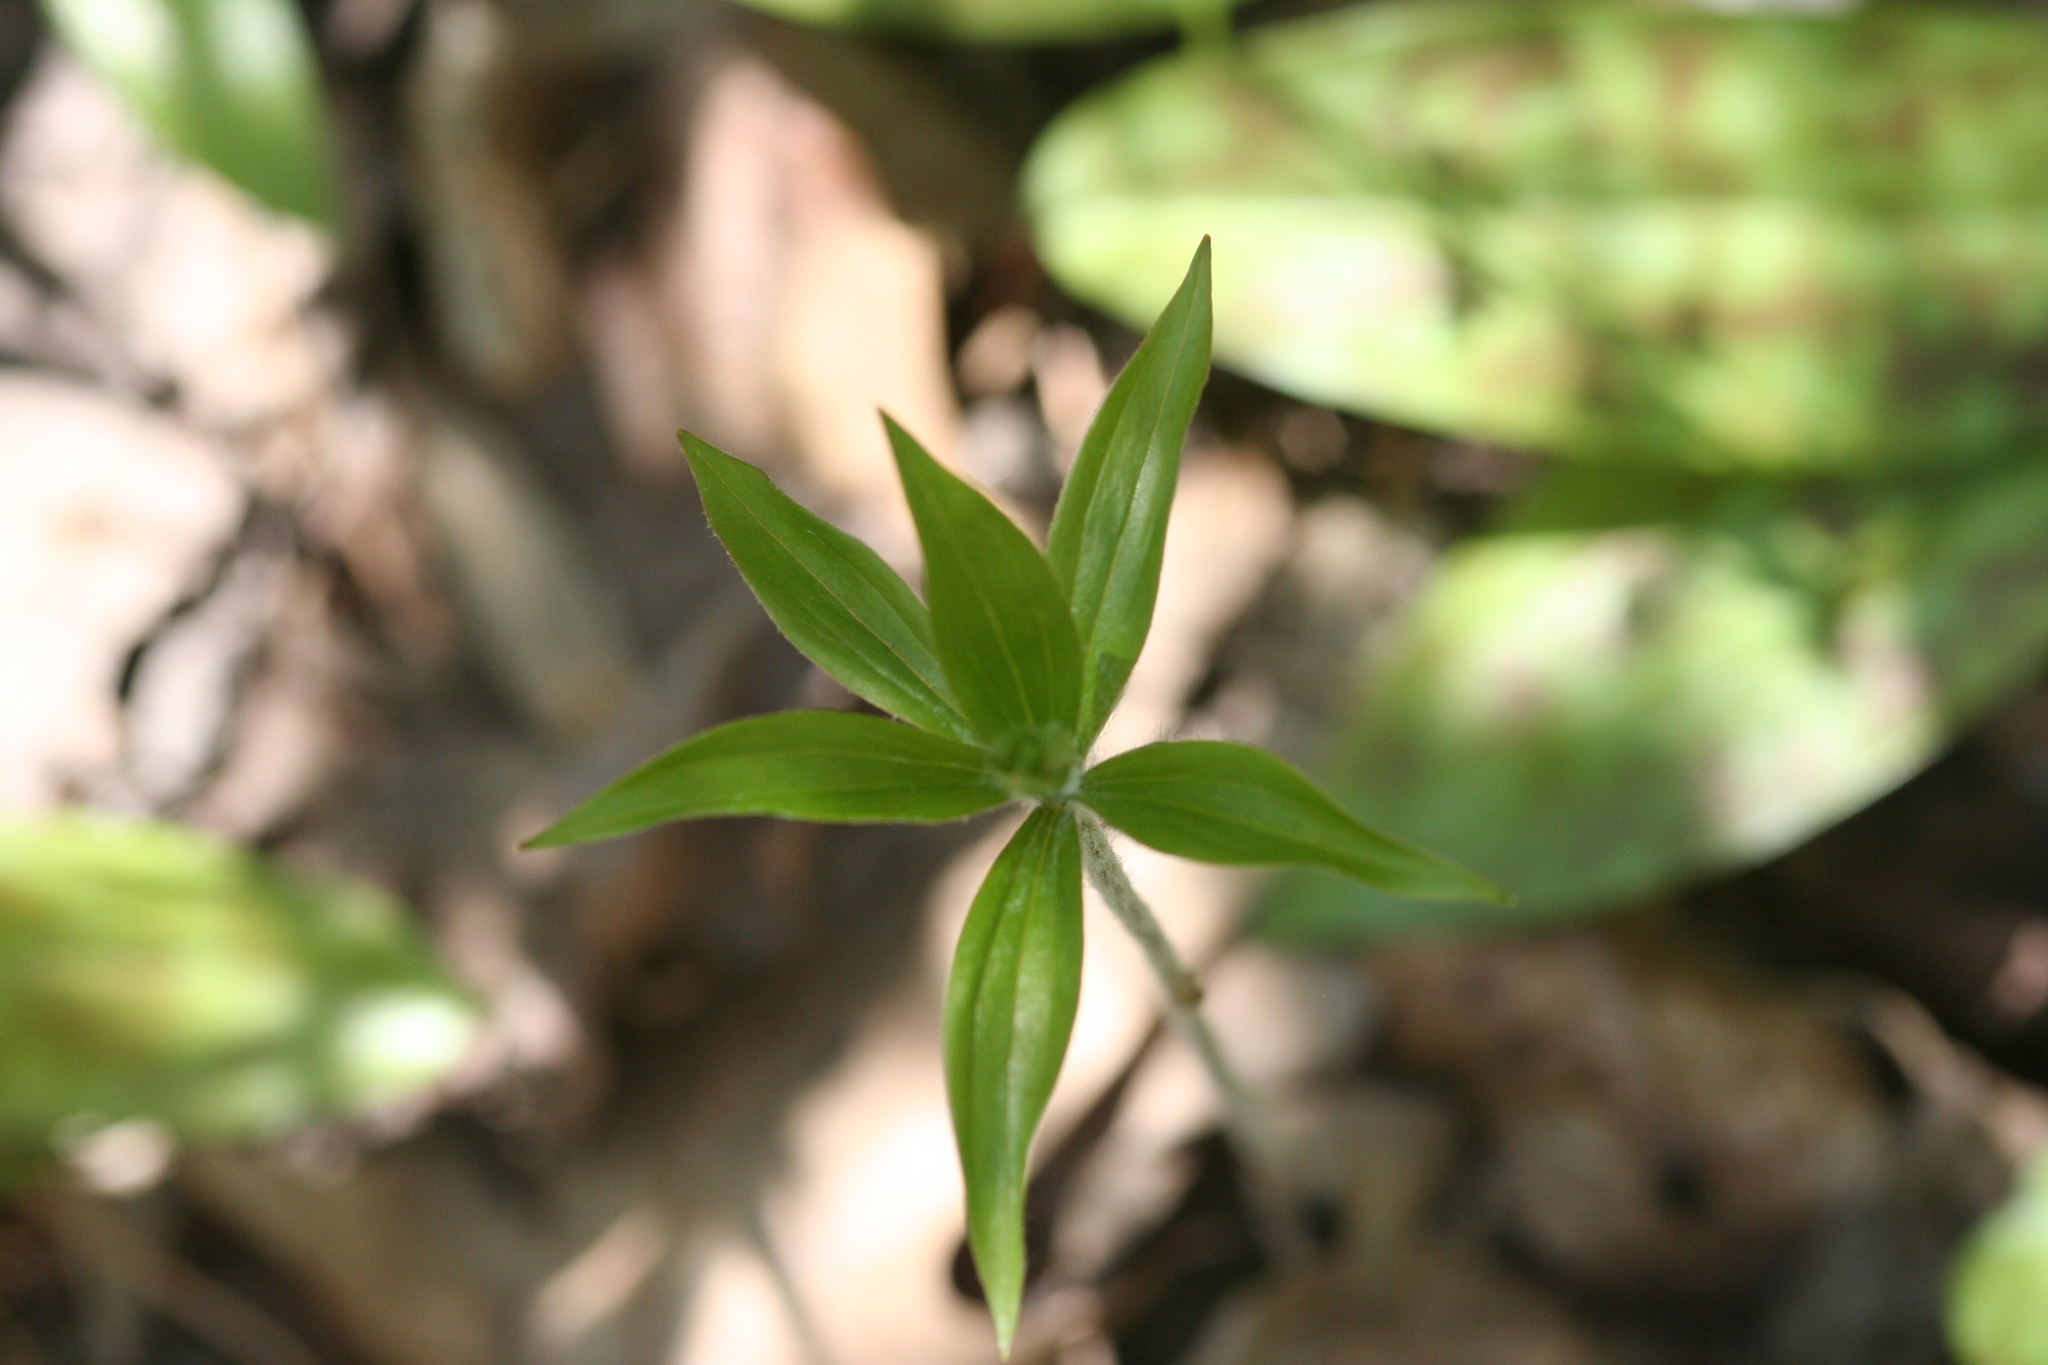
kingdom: Plantae
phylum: Tracheophyta
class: Liliopsida
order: Liliales
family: Liliaceae
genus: Medeola
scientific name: Medeola virginiana
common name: Indian cucumber-root
